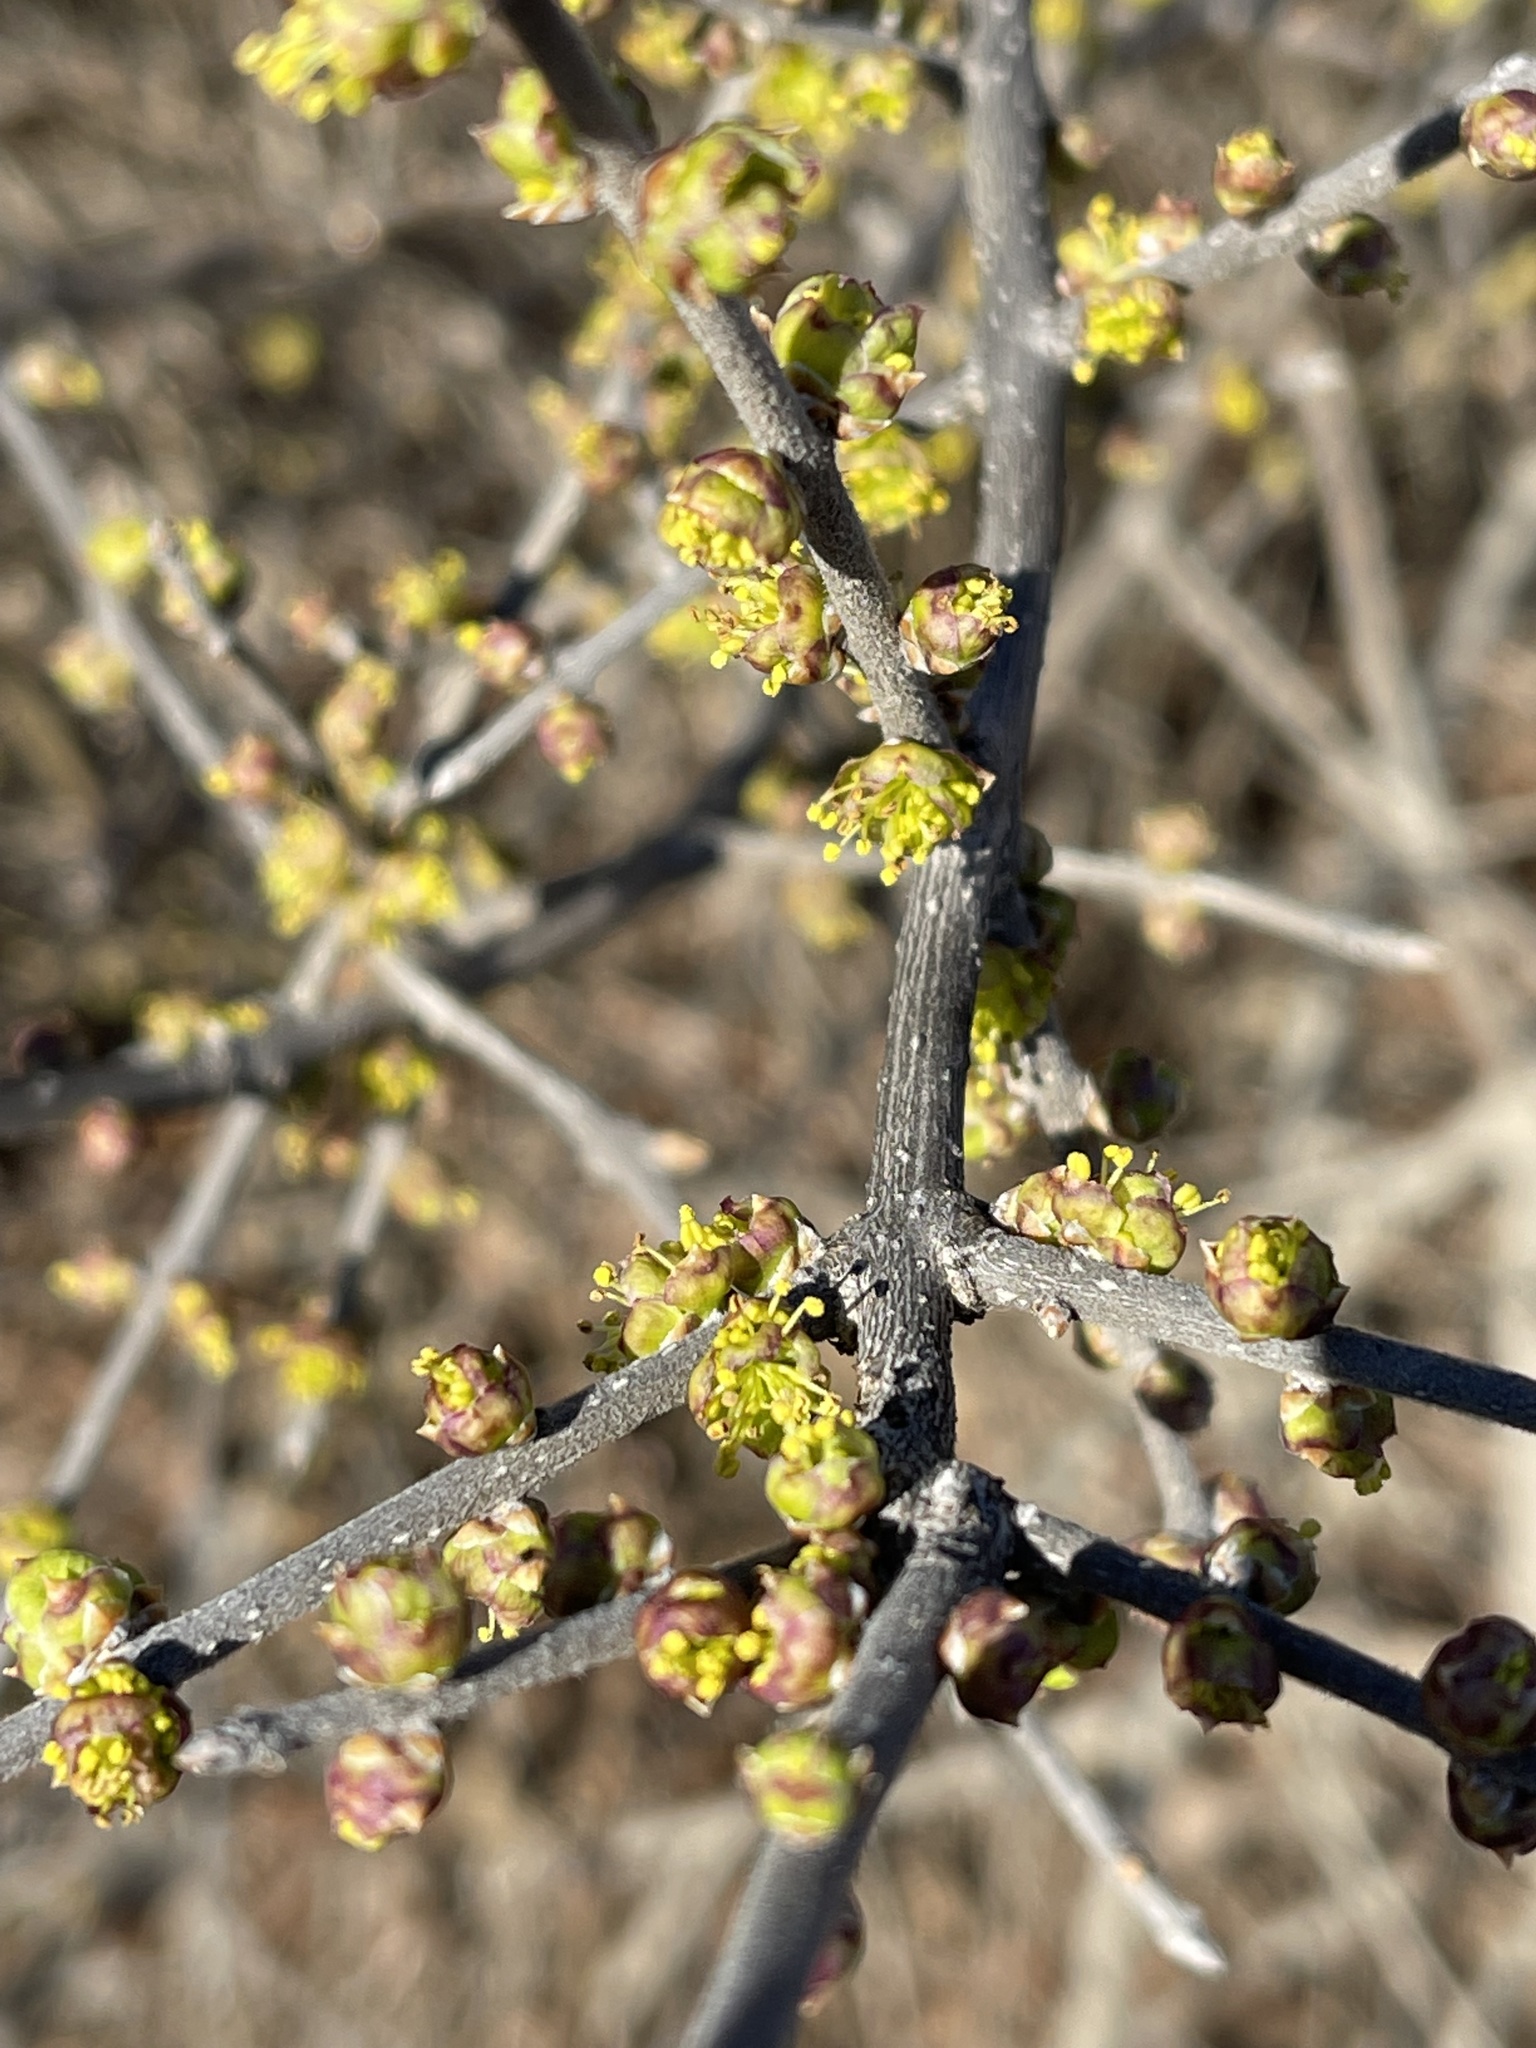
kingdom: Plantae
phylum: Tracheophyta
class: Magnoliopsida
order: Lamiales
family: Oleaceae
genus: Forestiera
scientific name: Forestiera pubescens
